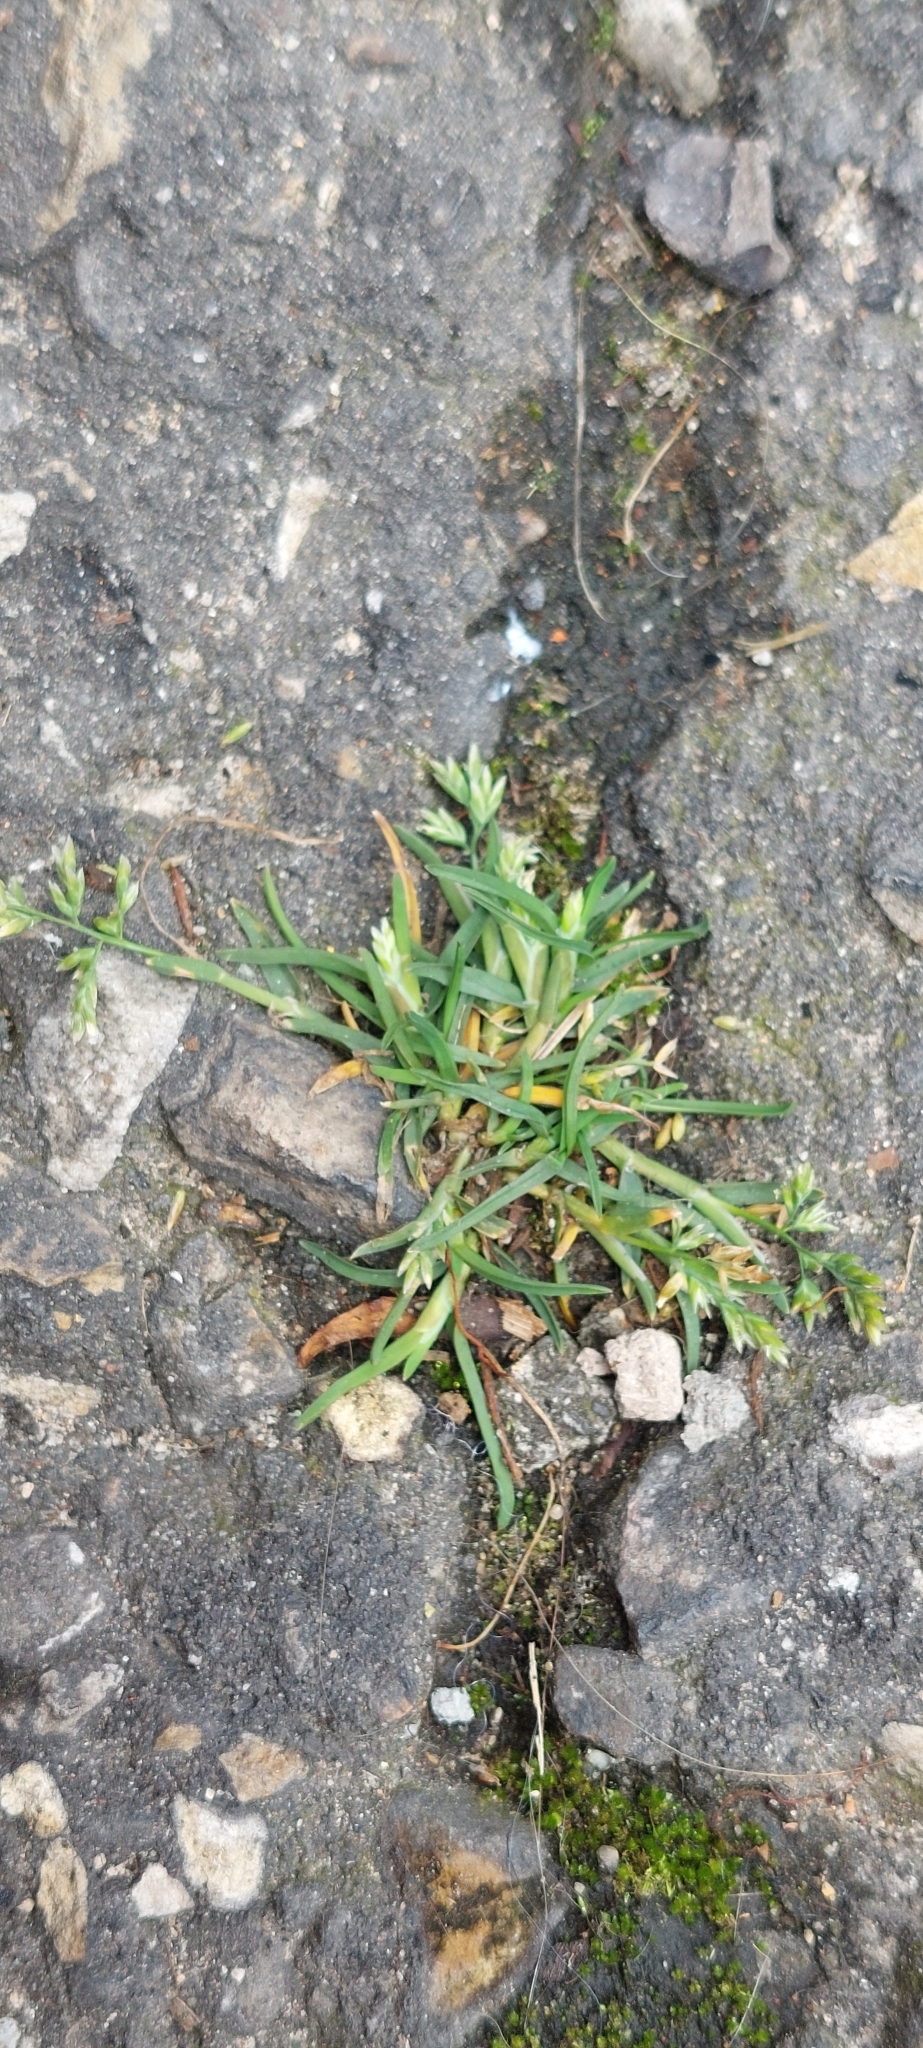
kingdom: Plantae
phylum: Tracheophyta
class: Liliopsida
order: Poales
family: Poaceae
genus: Poa
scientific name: Poa annua
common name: Annual bluegrass
